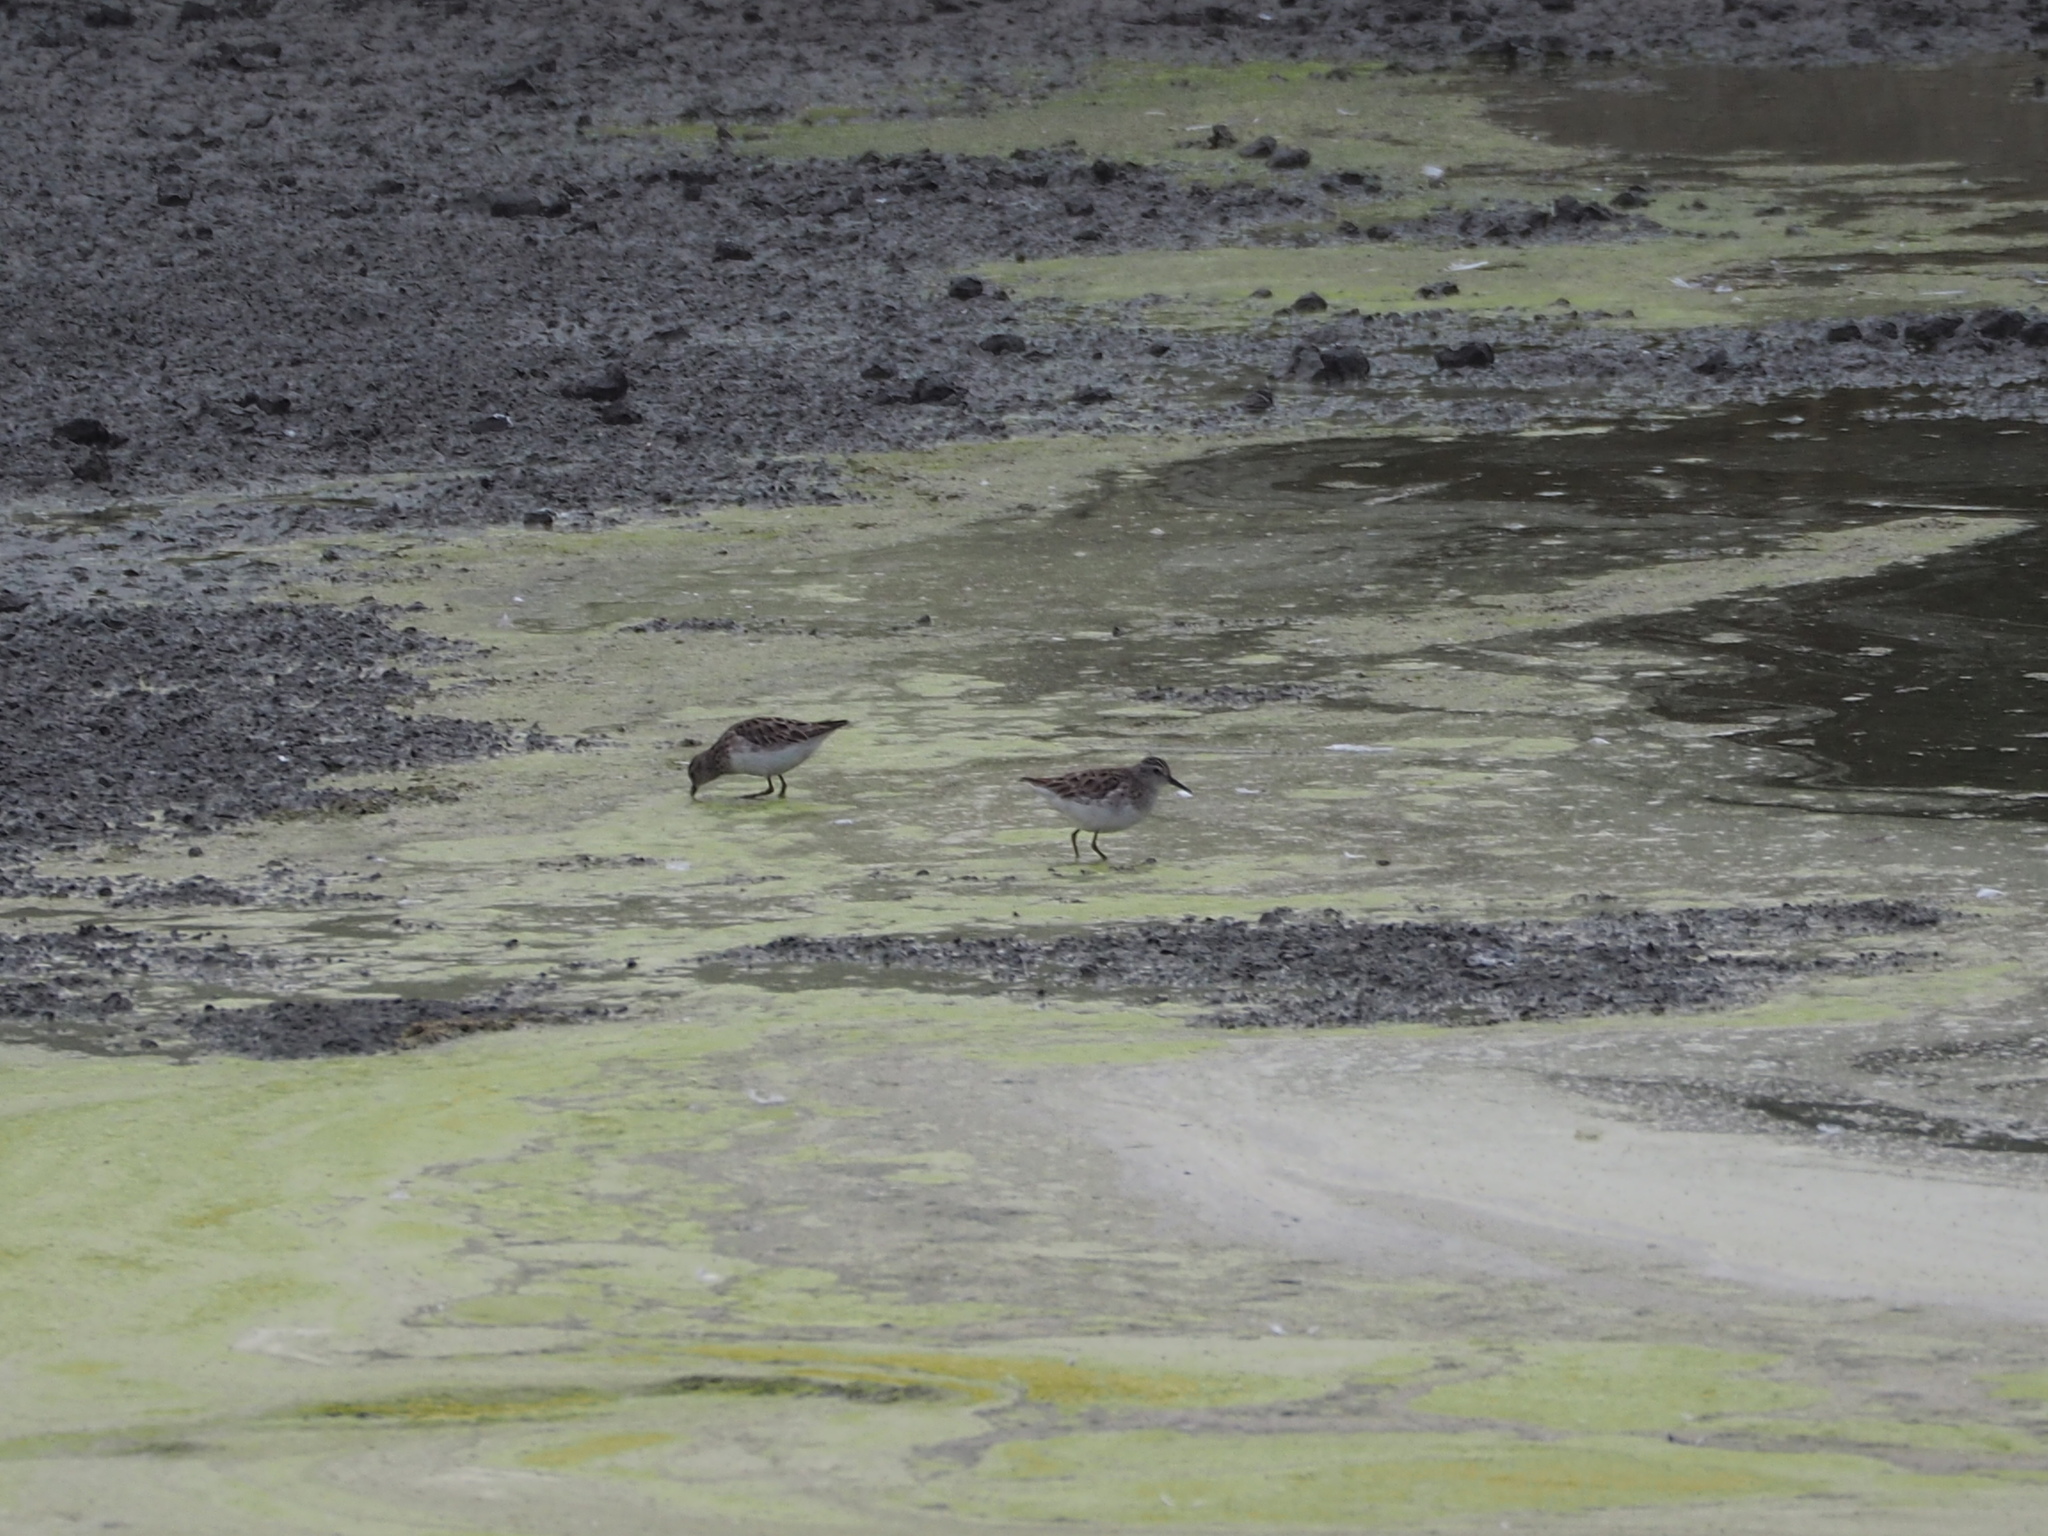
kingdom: Animalia
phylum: Chordata
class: Aves
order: Charadriiformes
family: Scolopacidae
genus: Calidris
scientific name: Calidris ruficollis
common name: Red-necked stint
